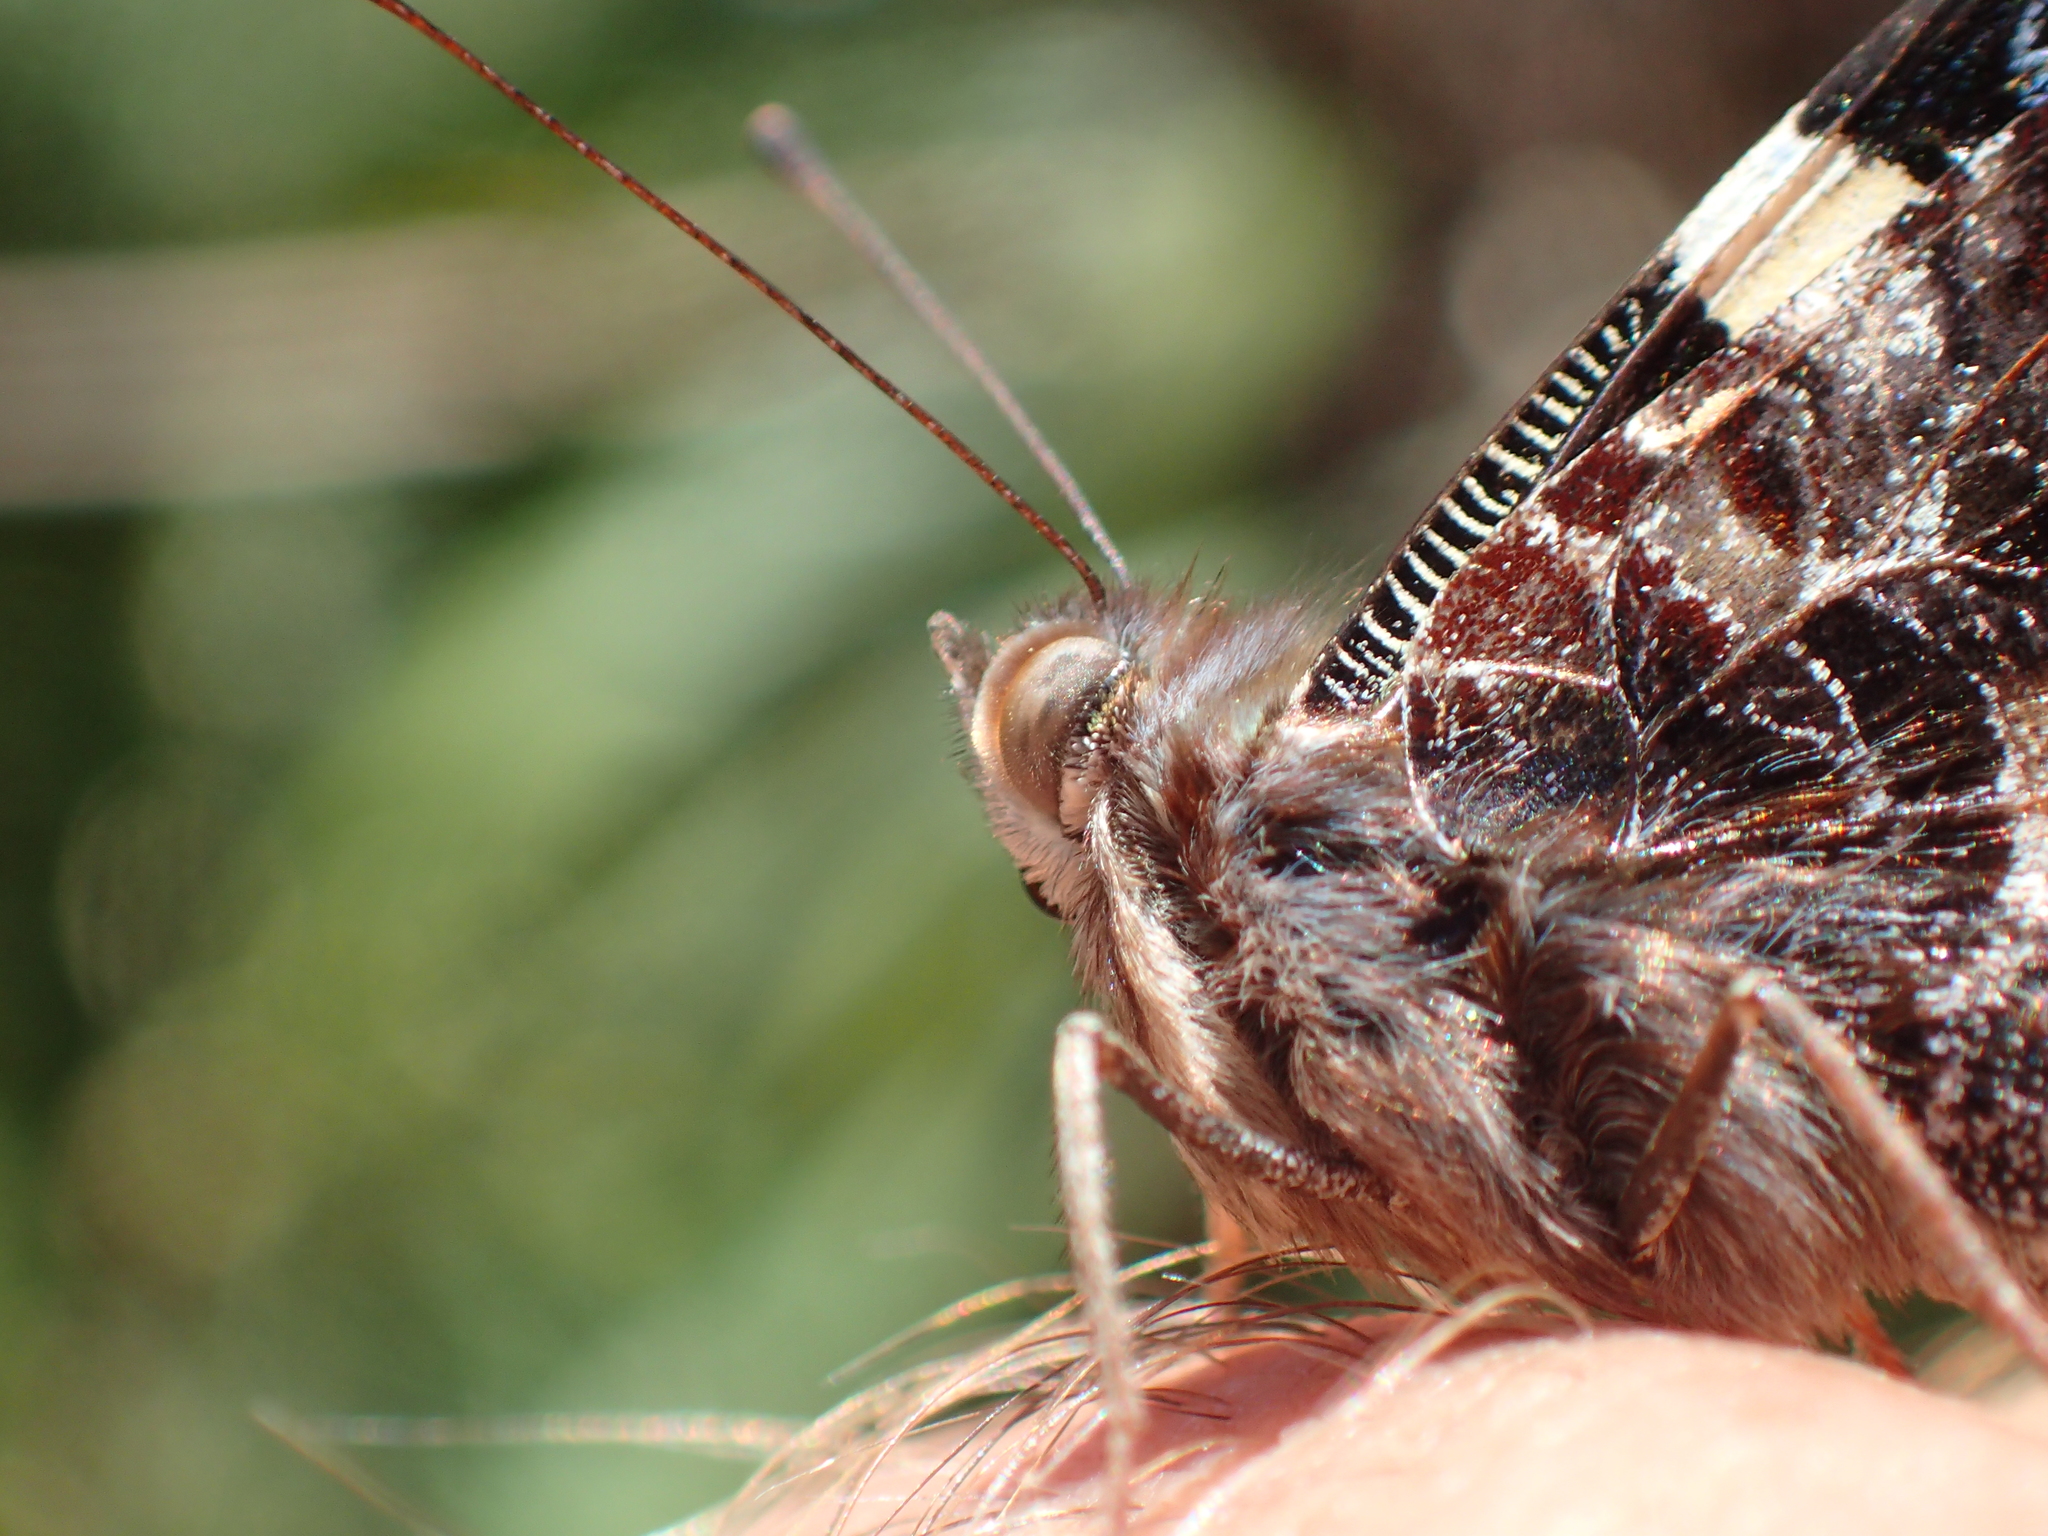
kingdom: Animalia
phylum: Arthropoda
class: Insecta
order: Lepidoptera
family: Nymphalidae
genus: Vanessa
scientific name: Vanessa itea
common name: Yellow admiral
